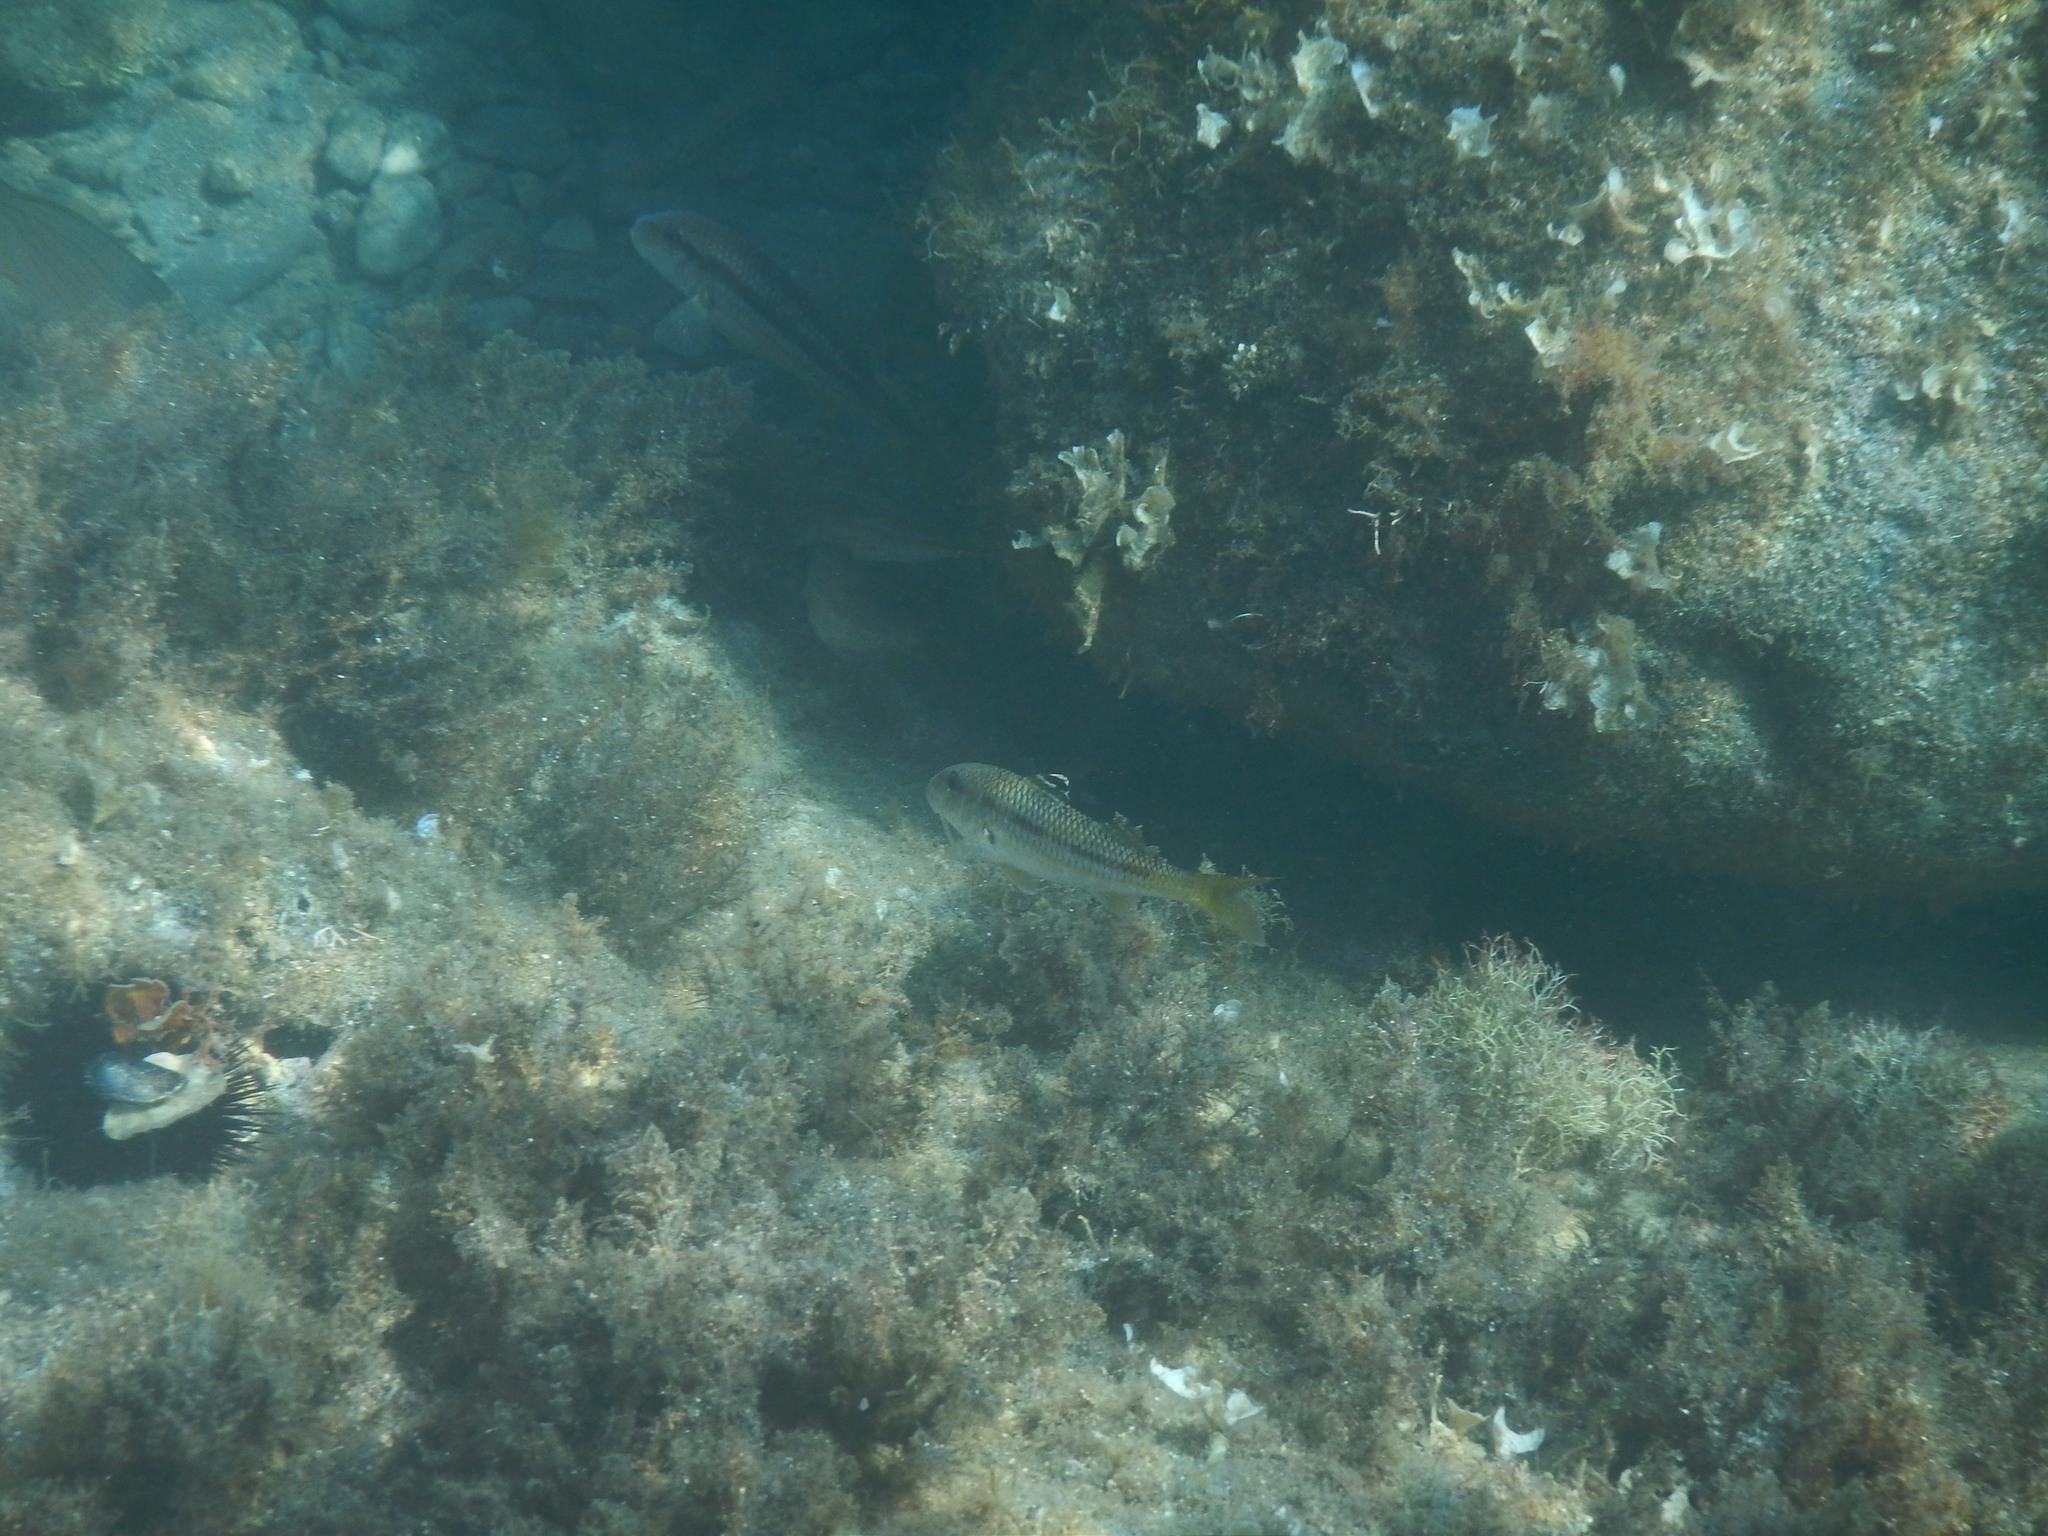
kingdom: Animalia
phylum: Chordata
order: Perciformes
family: Mullidae
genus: Mullus
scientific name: Mullus surmuletus
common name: Red mullet
